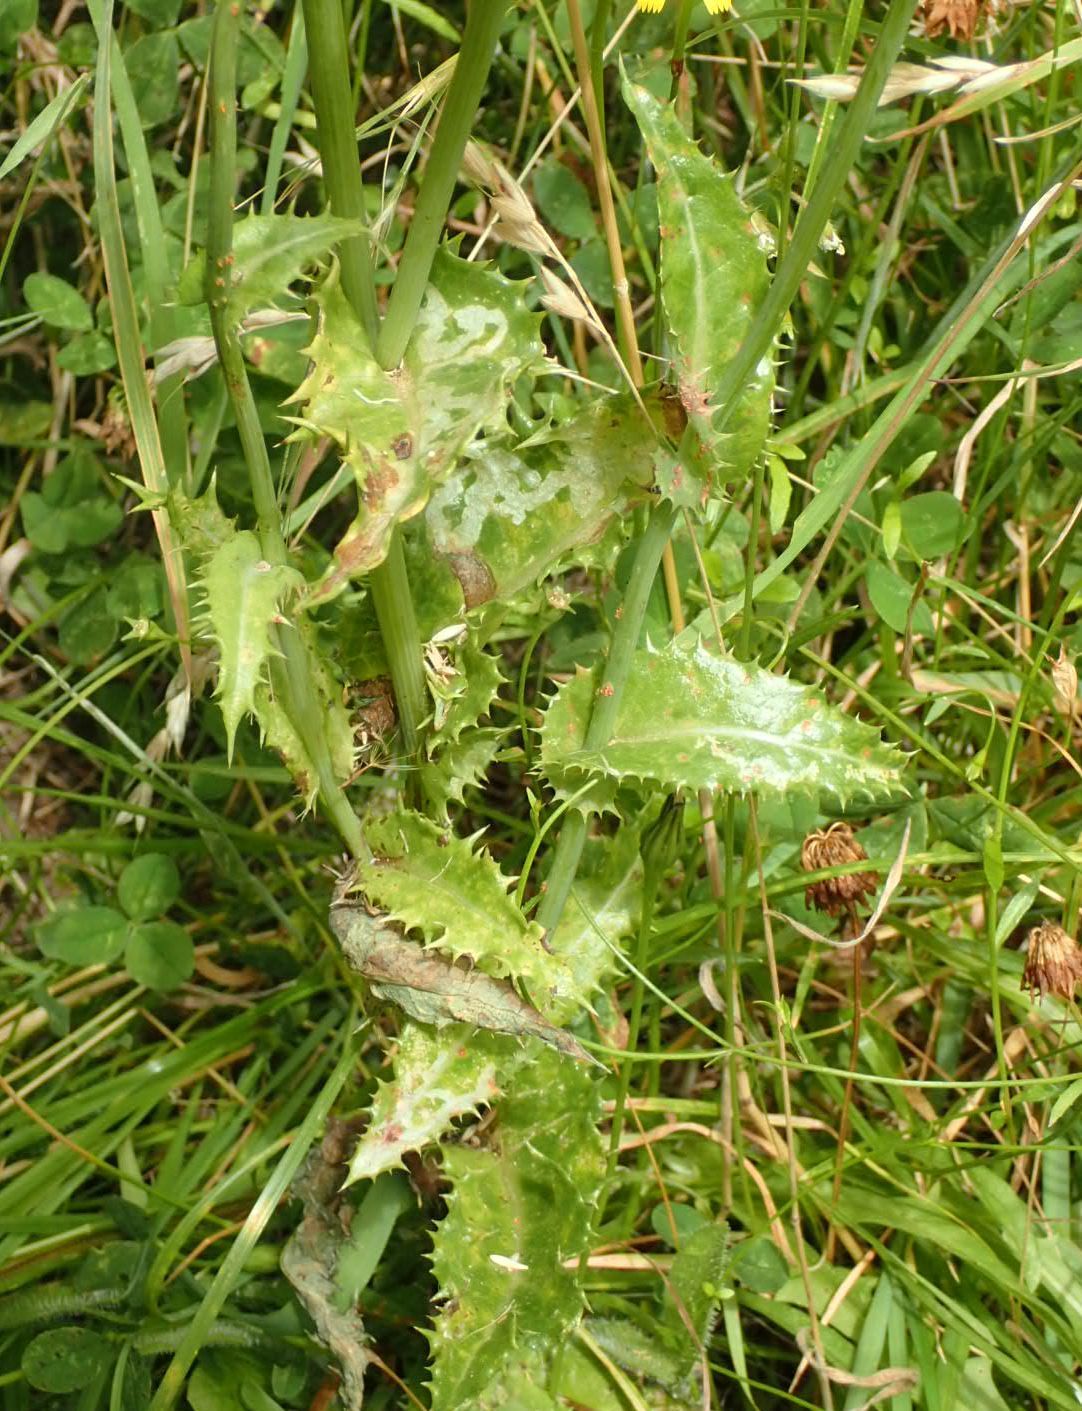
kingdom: Plantae
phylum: Tracheophyta
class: Magnoliopsida
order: Asterales
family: Asteraceae
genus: Sonchus
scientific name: Sonchus asper
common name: Prickly sow-thistle
